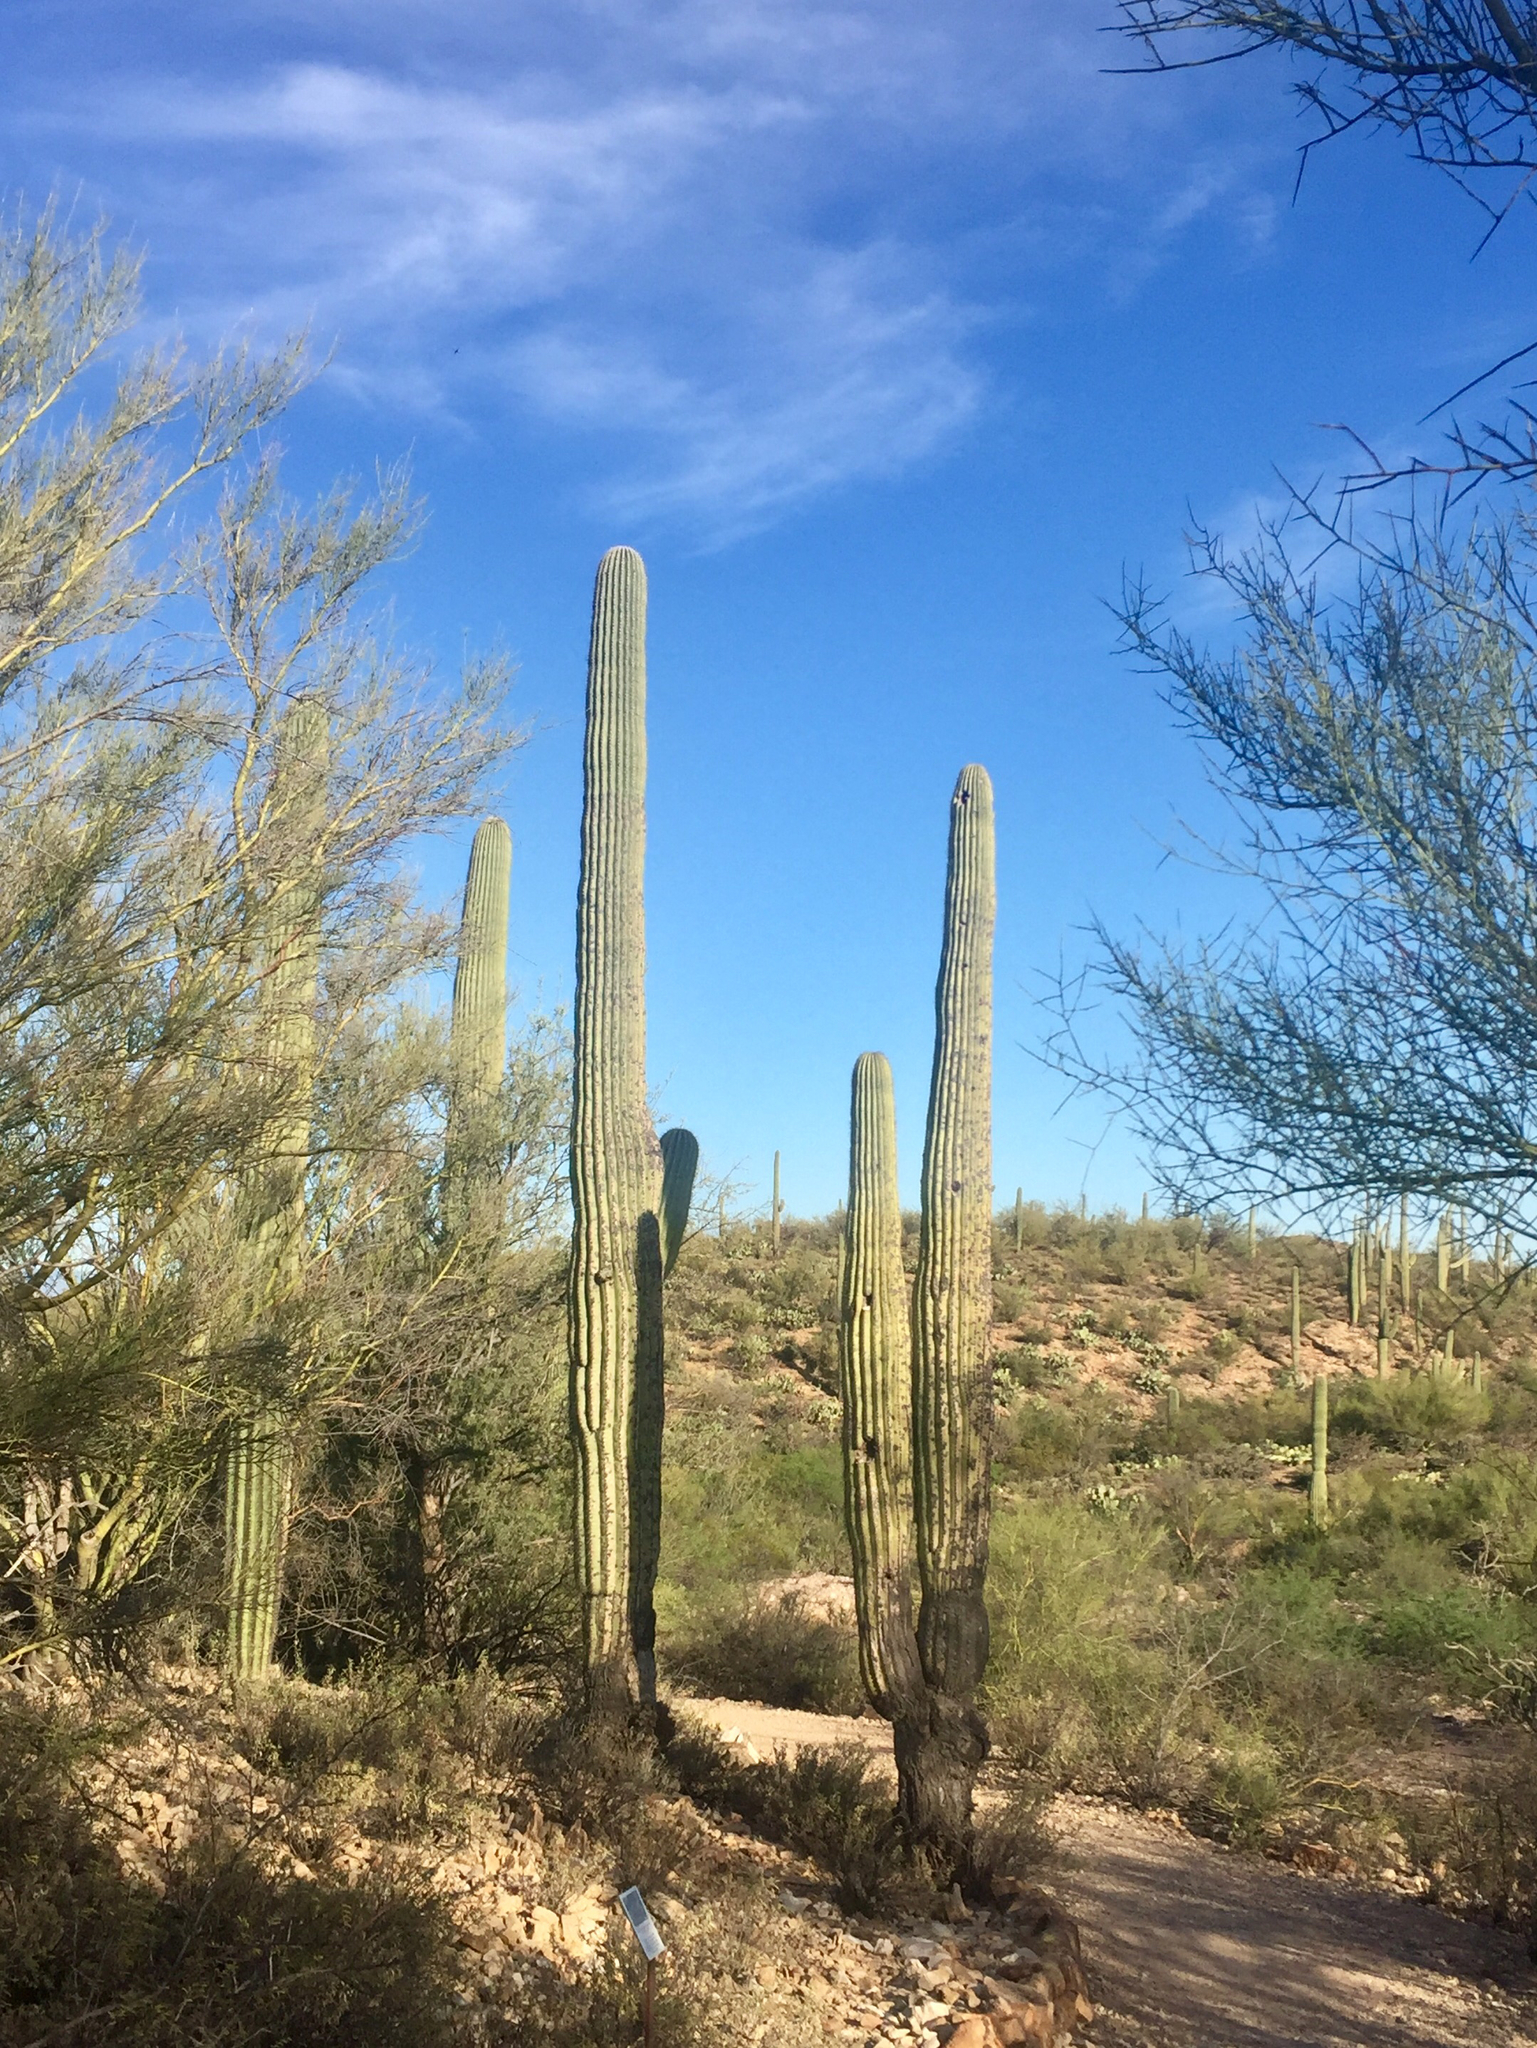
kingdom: Plantae
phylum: Tracheophyta
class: Magnoliopsida
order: Caryophyllales
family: Cactaceae
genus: Carnegiea
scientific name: Carnegiea gigantea
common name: Saguaro
